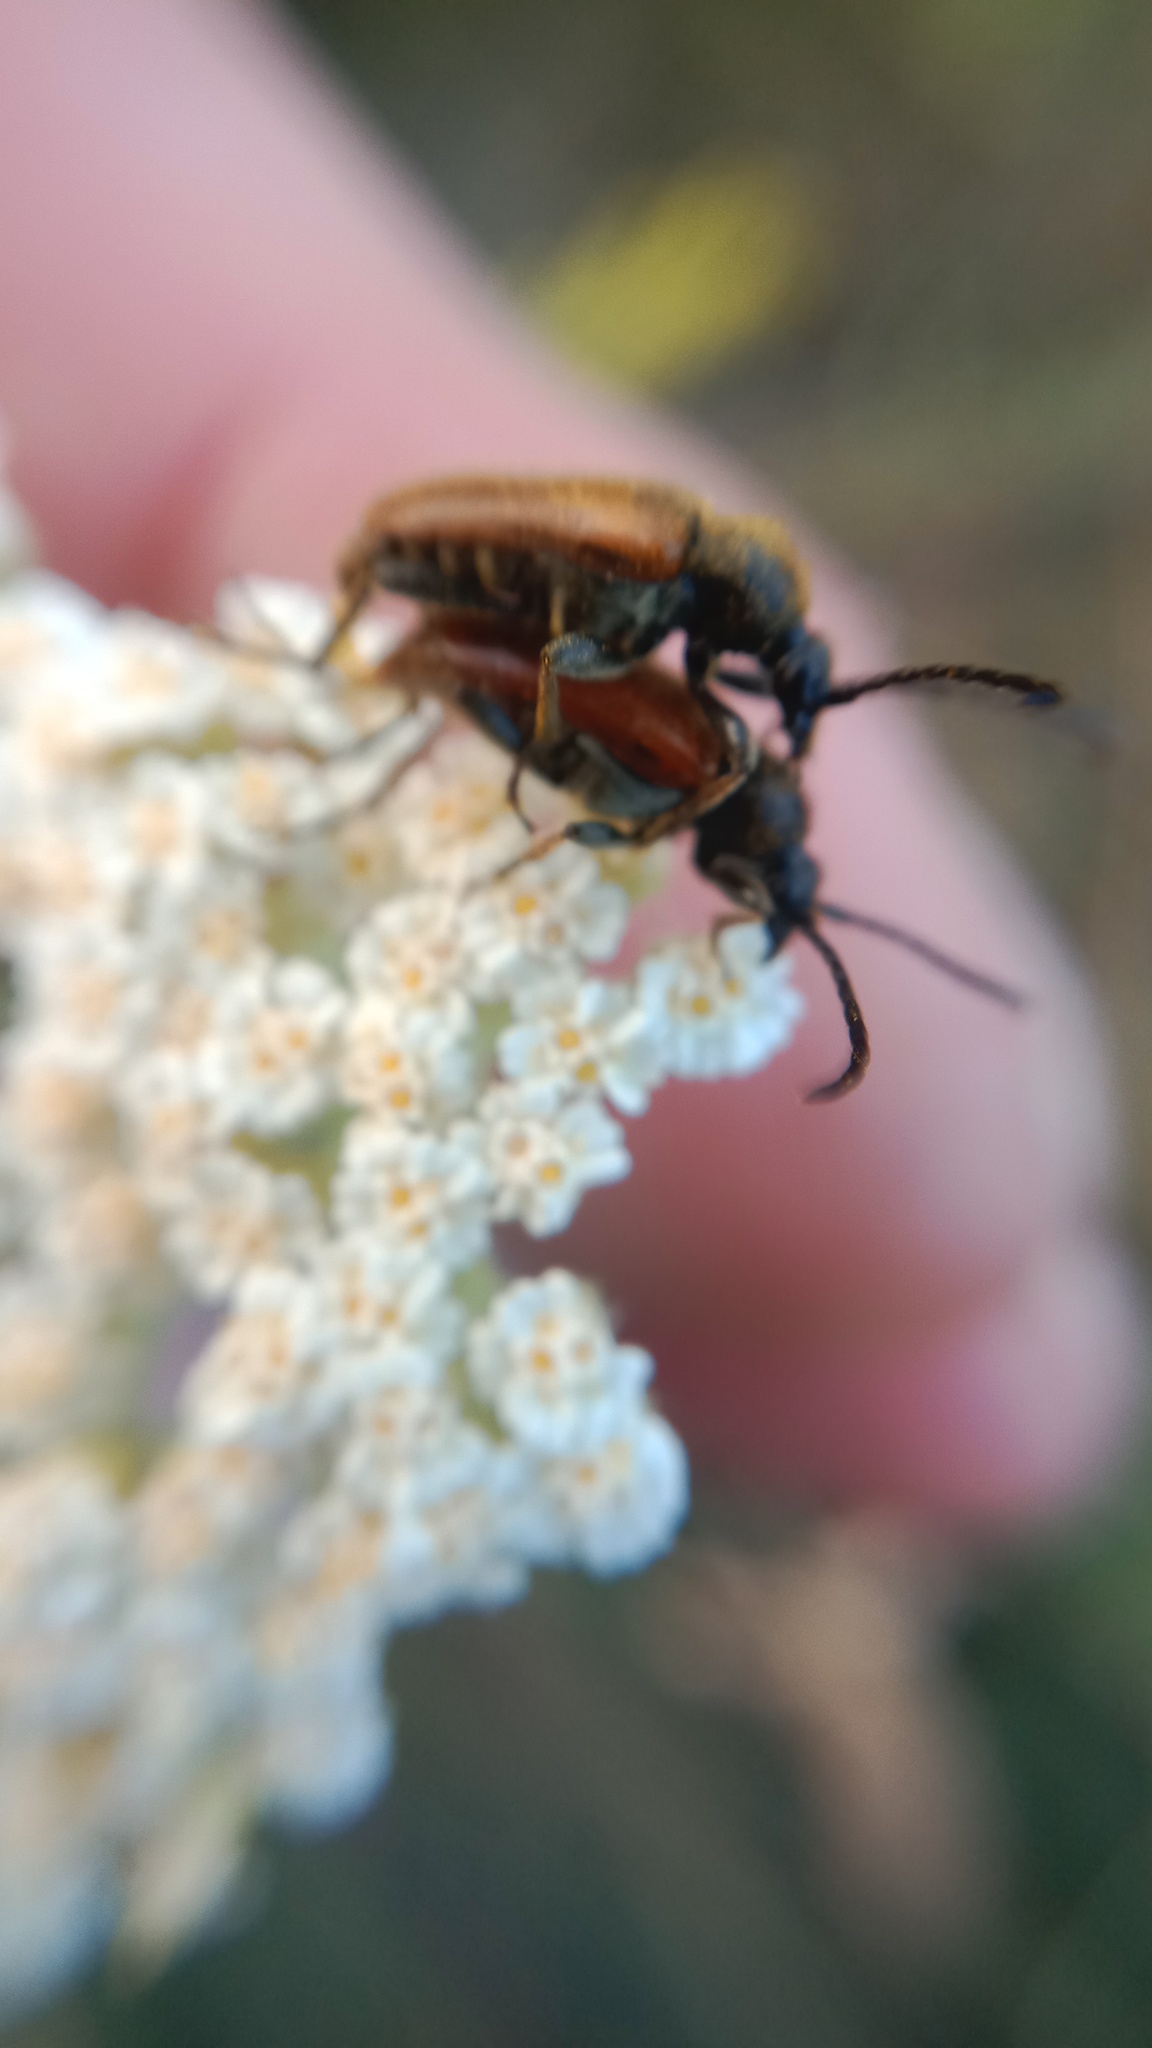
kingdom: Animalia
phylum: Arthropoda
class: Insecta
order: Coleoptera
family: Cerambycidae
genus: Pseudovadonia
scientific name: Pseudovadonia livida
